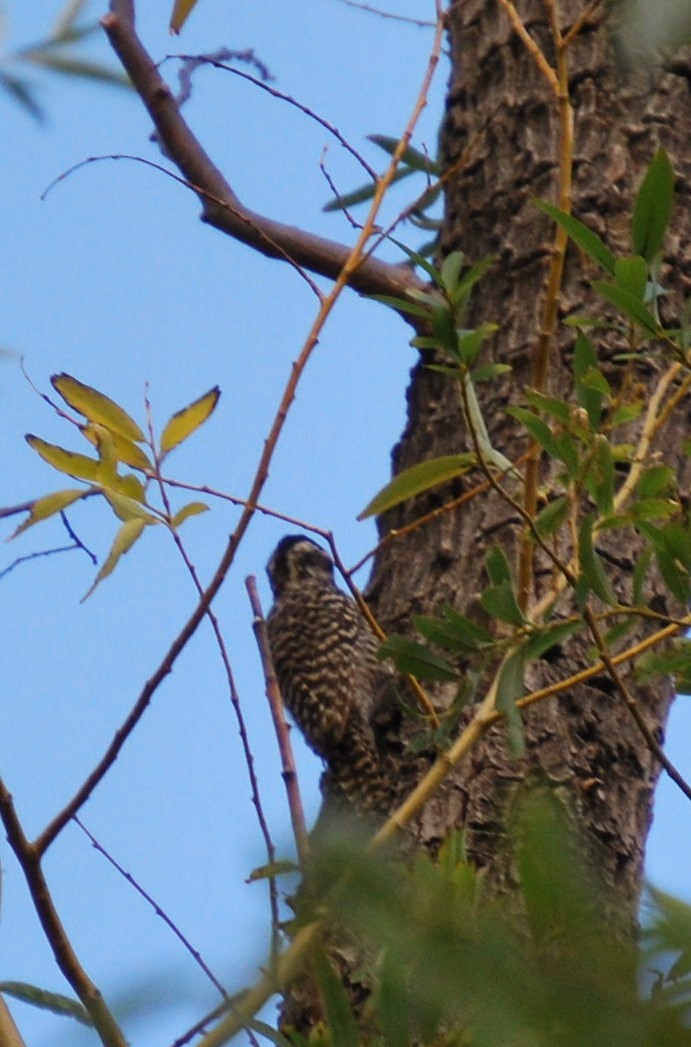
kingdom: Animalia
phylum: Chordata
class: Aves
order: Piciformes
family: Picidae
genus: Veniliornis
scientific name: Veniliornis mixtus
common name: Checkered woodpecker
